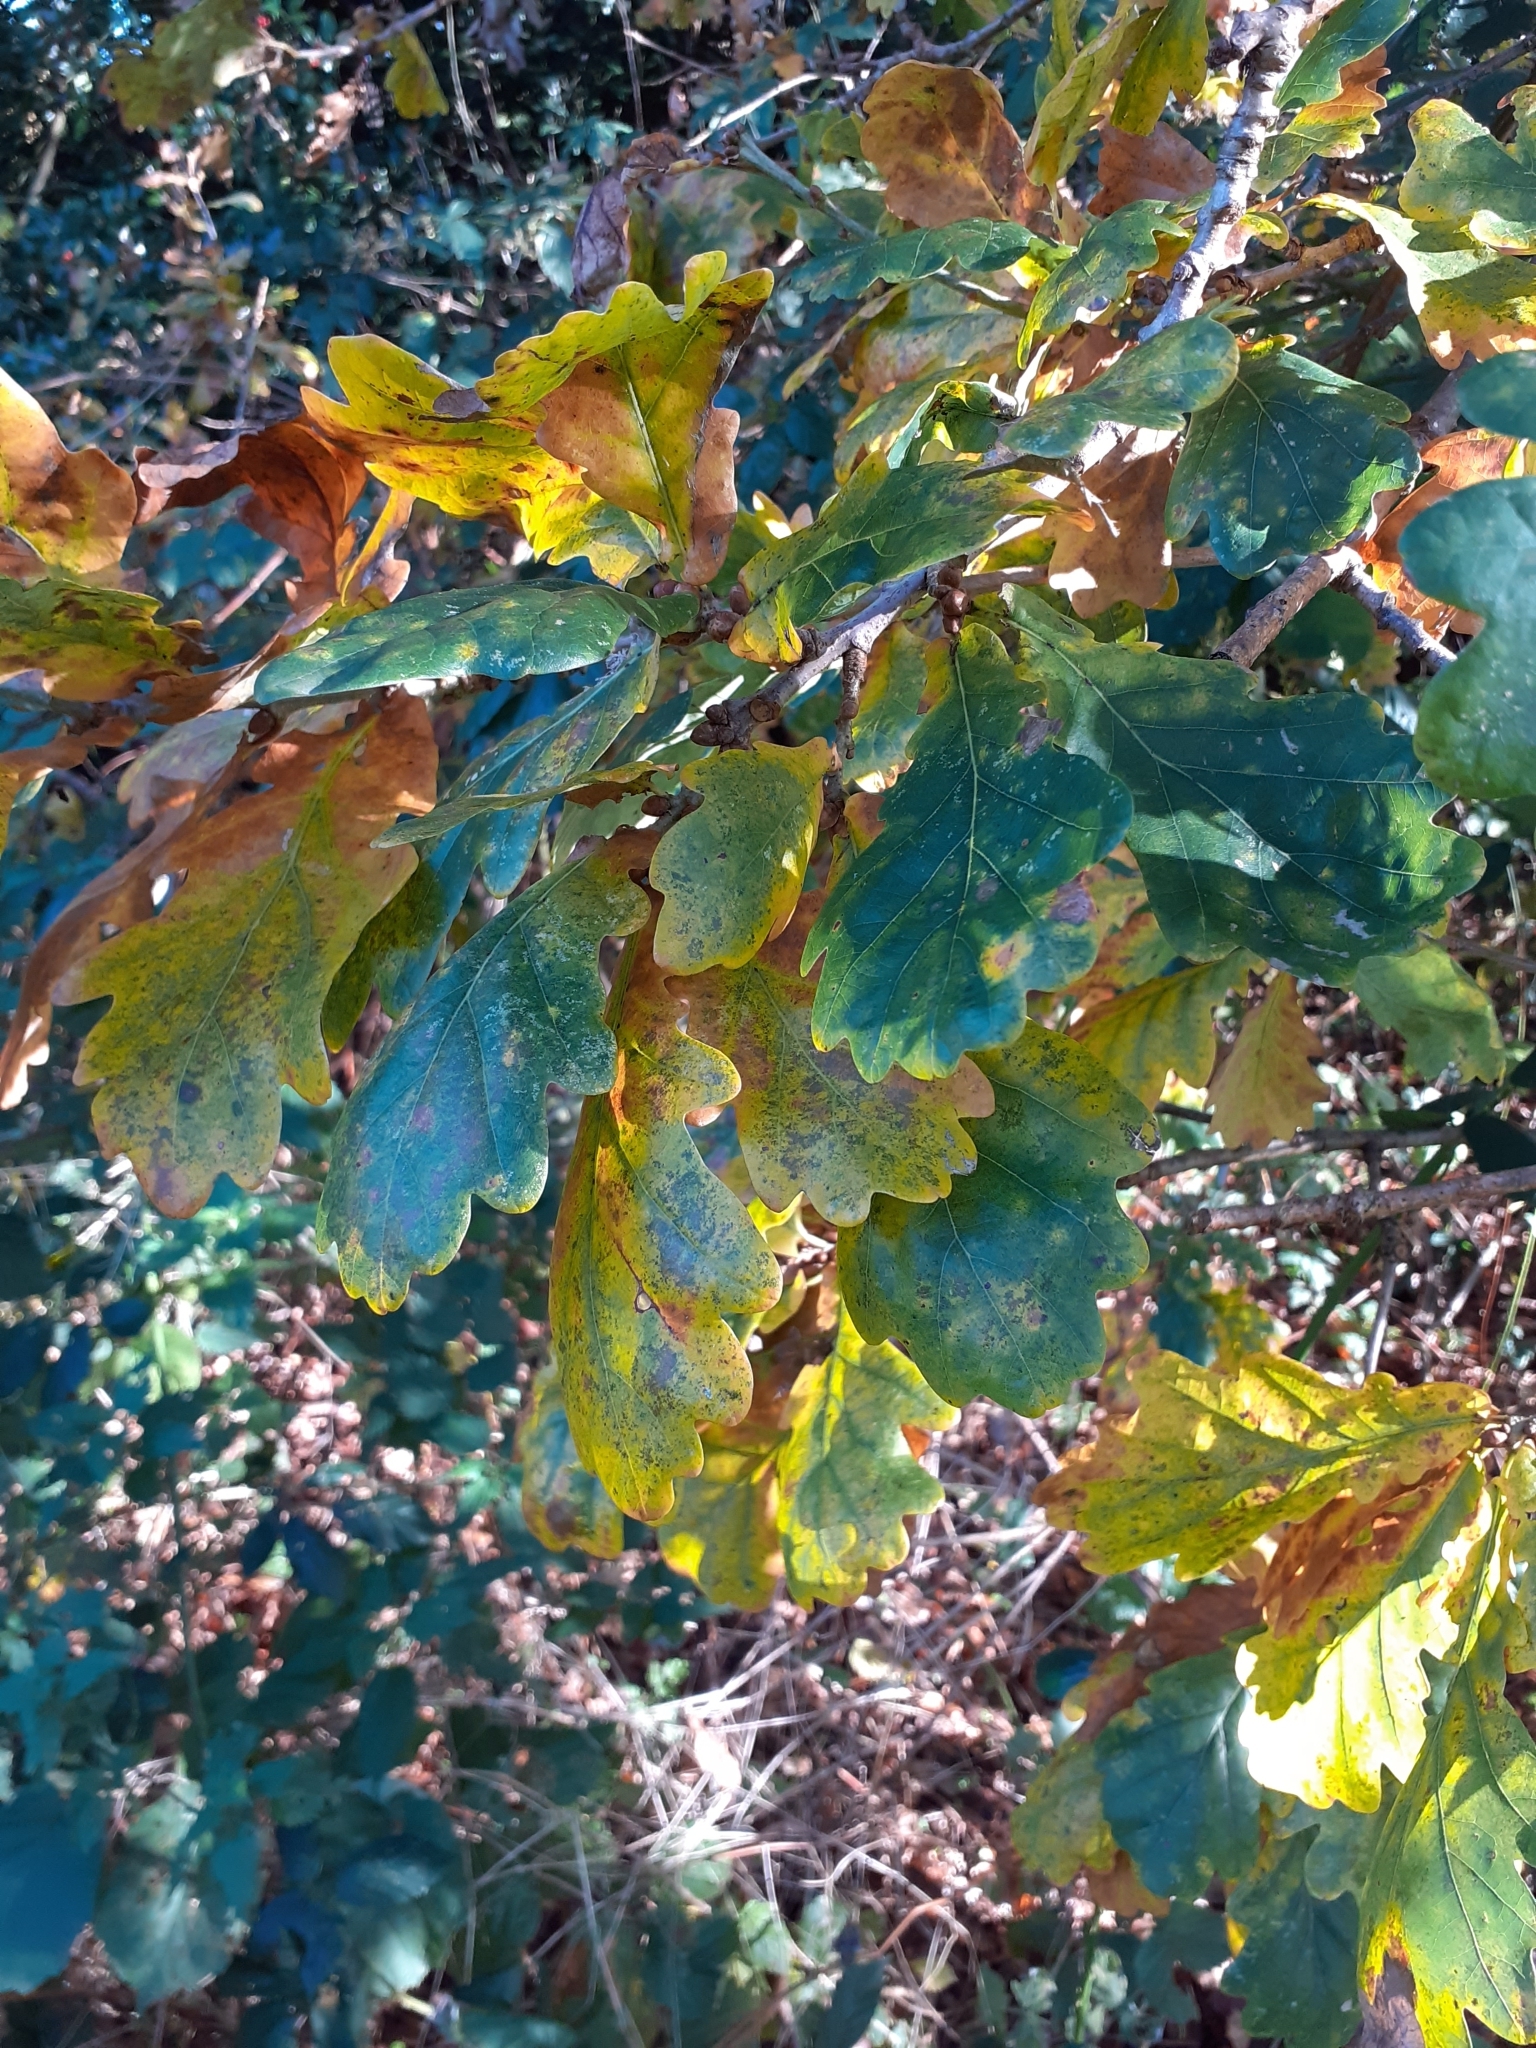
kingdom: Plantae
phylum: Tracheophyta
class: Magnoliopsida
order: Fagales
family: Fagaceae
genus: Quercus
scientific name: Quercus robur
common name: Pedunculate oak
